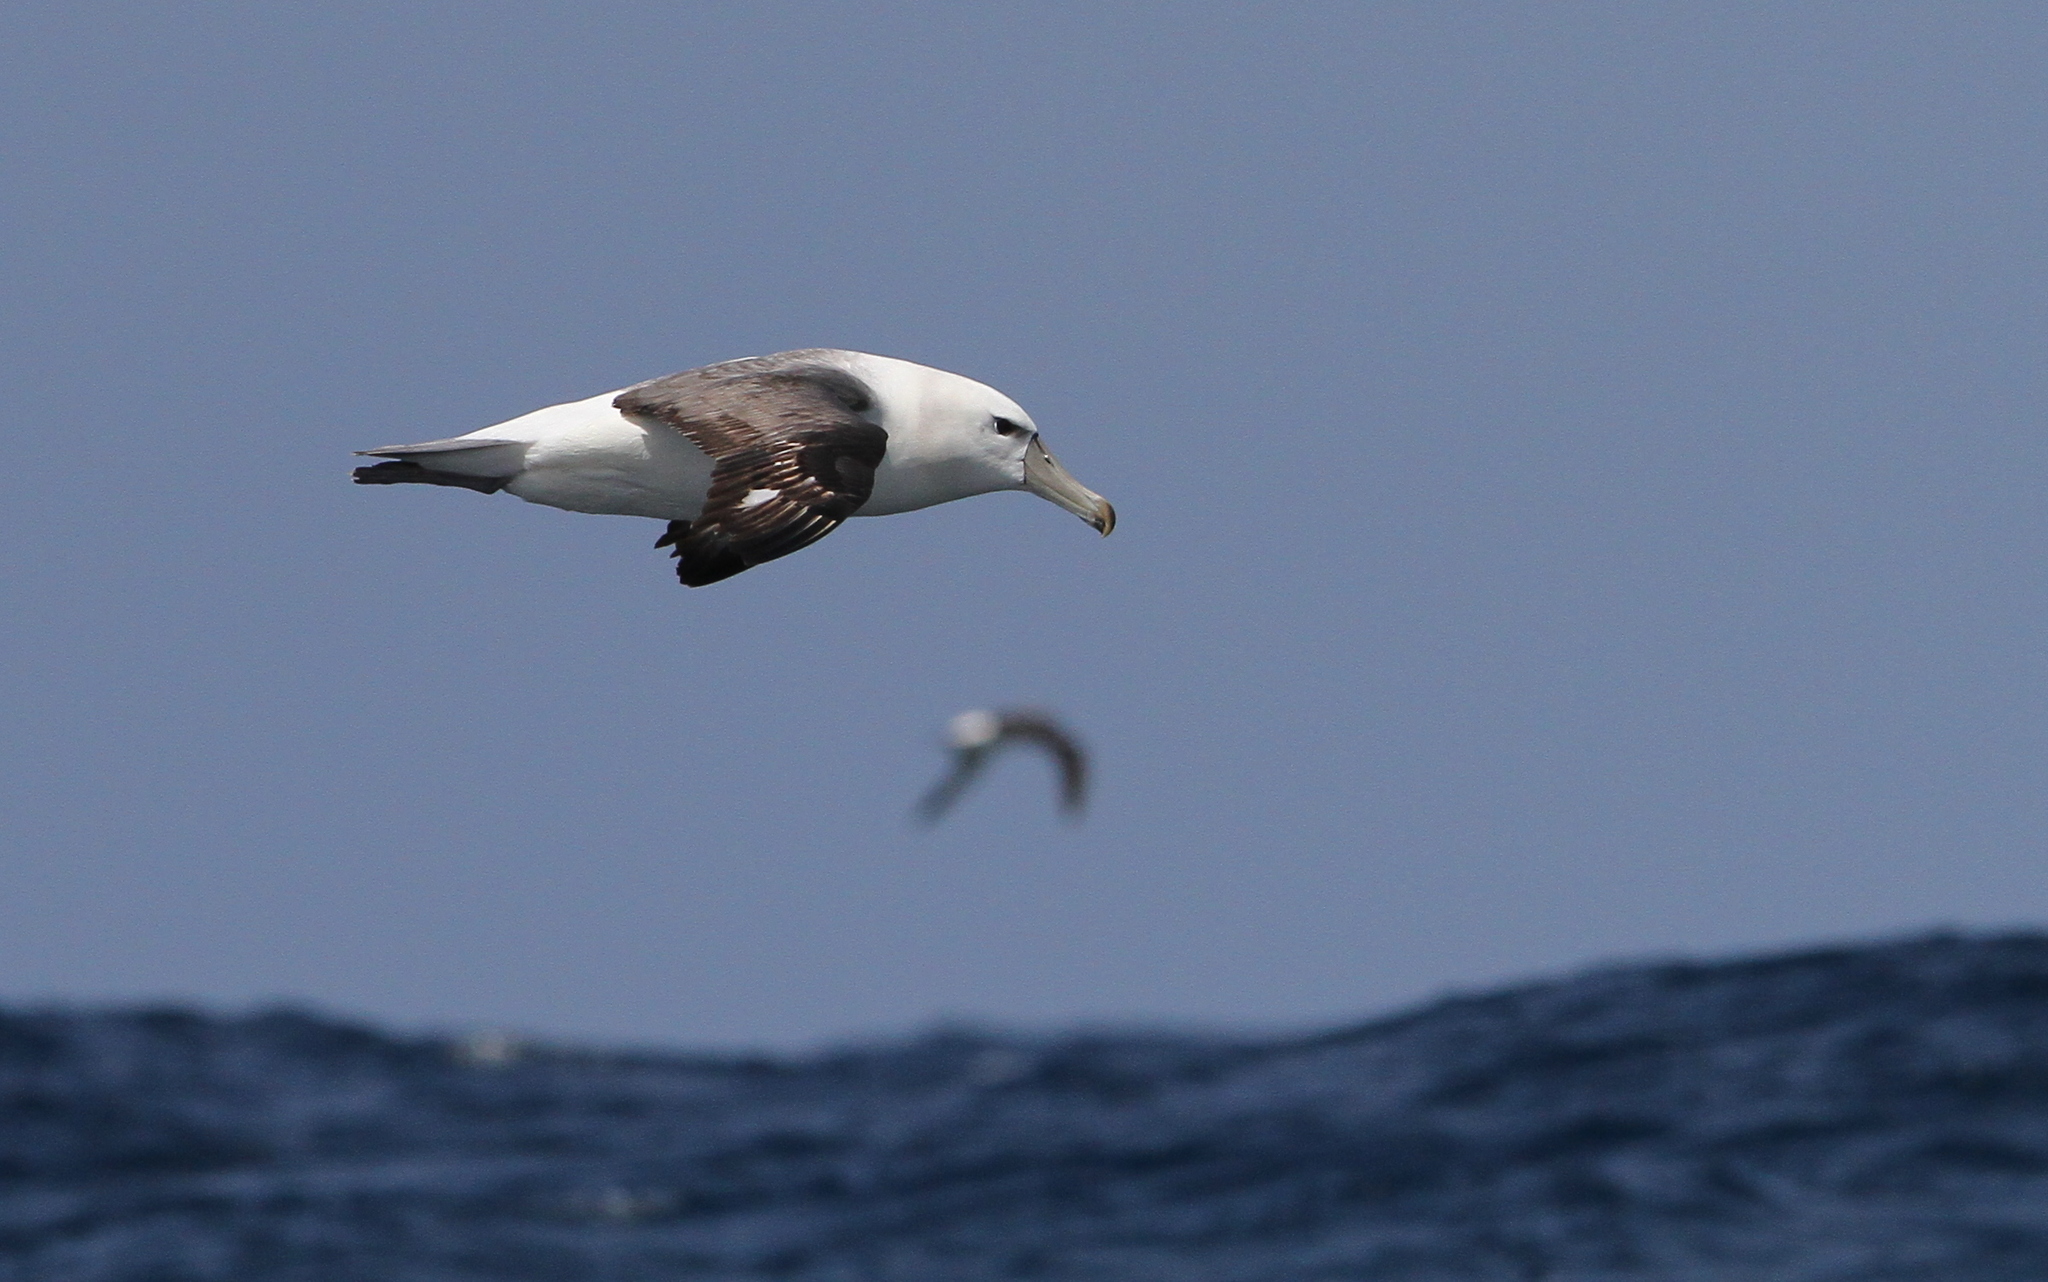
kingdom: Animalia
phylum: Chordata
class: Aves
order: Procellariiformes
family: Diomedeidae
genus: Thalassarche
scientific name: Thalassarche cauta
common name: Shy albatross
